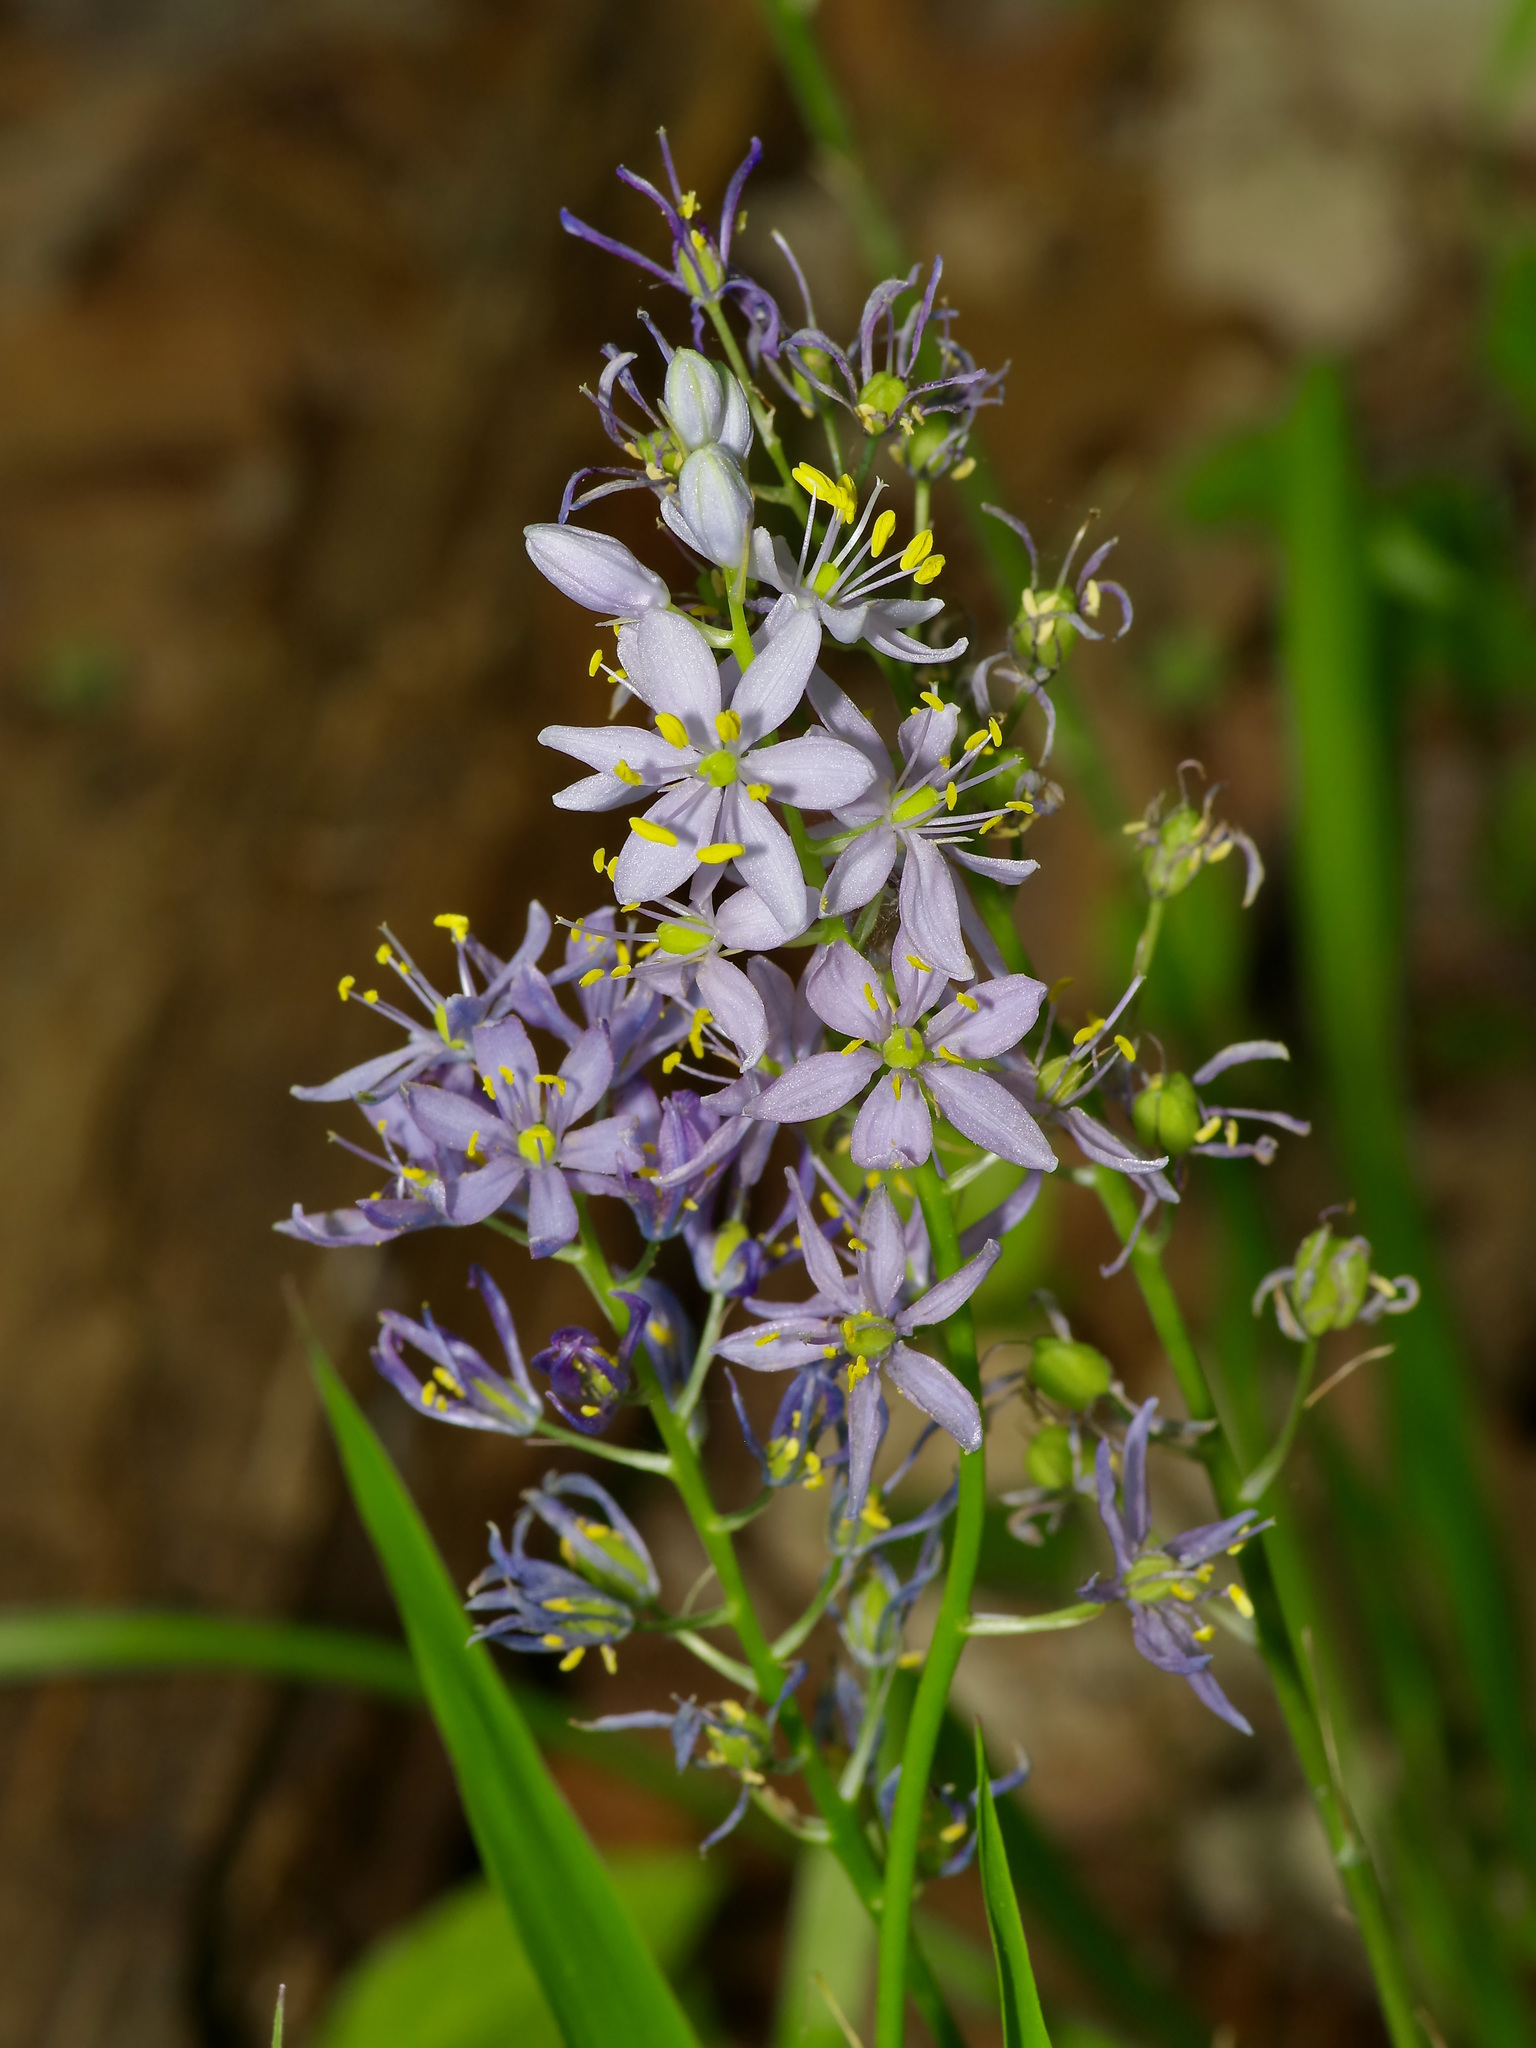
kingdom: Plantae
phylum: Tracheophyta
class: Liliopsida
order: Asparagales
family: Asparagaceae
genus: Camassia
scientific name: Camassia scilloides
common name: Wild hyacinth
